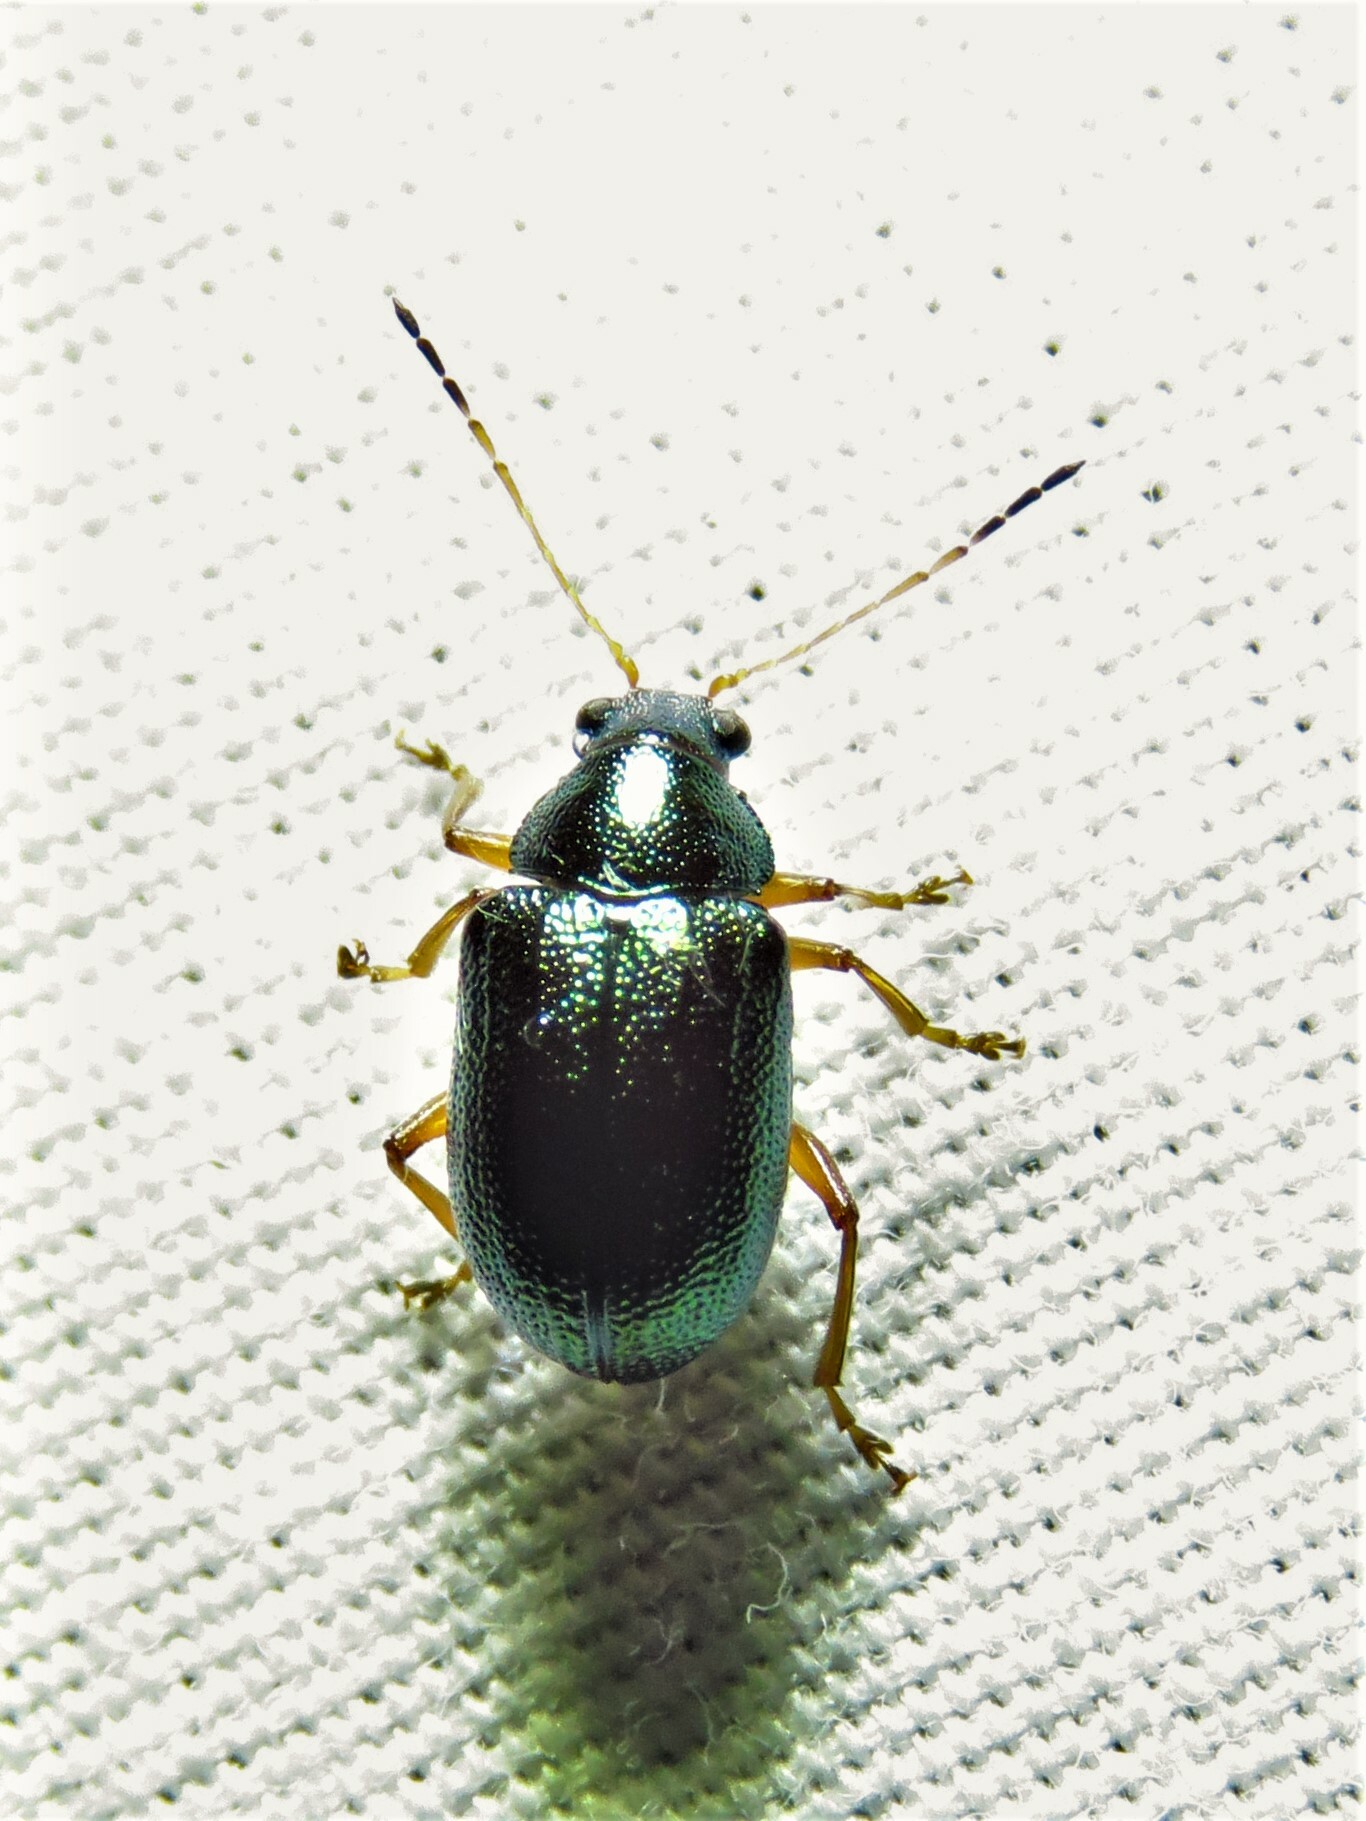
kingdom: Animalia
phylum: Arthropoda
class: Insecta
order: Coleoptera
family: Chrysomelidae
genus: Colaspis
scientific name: Colaspis favosa
